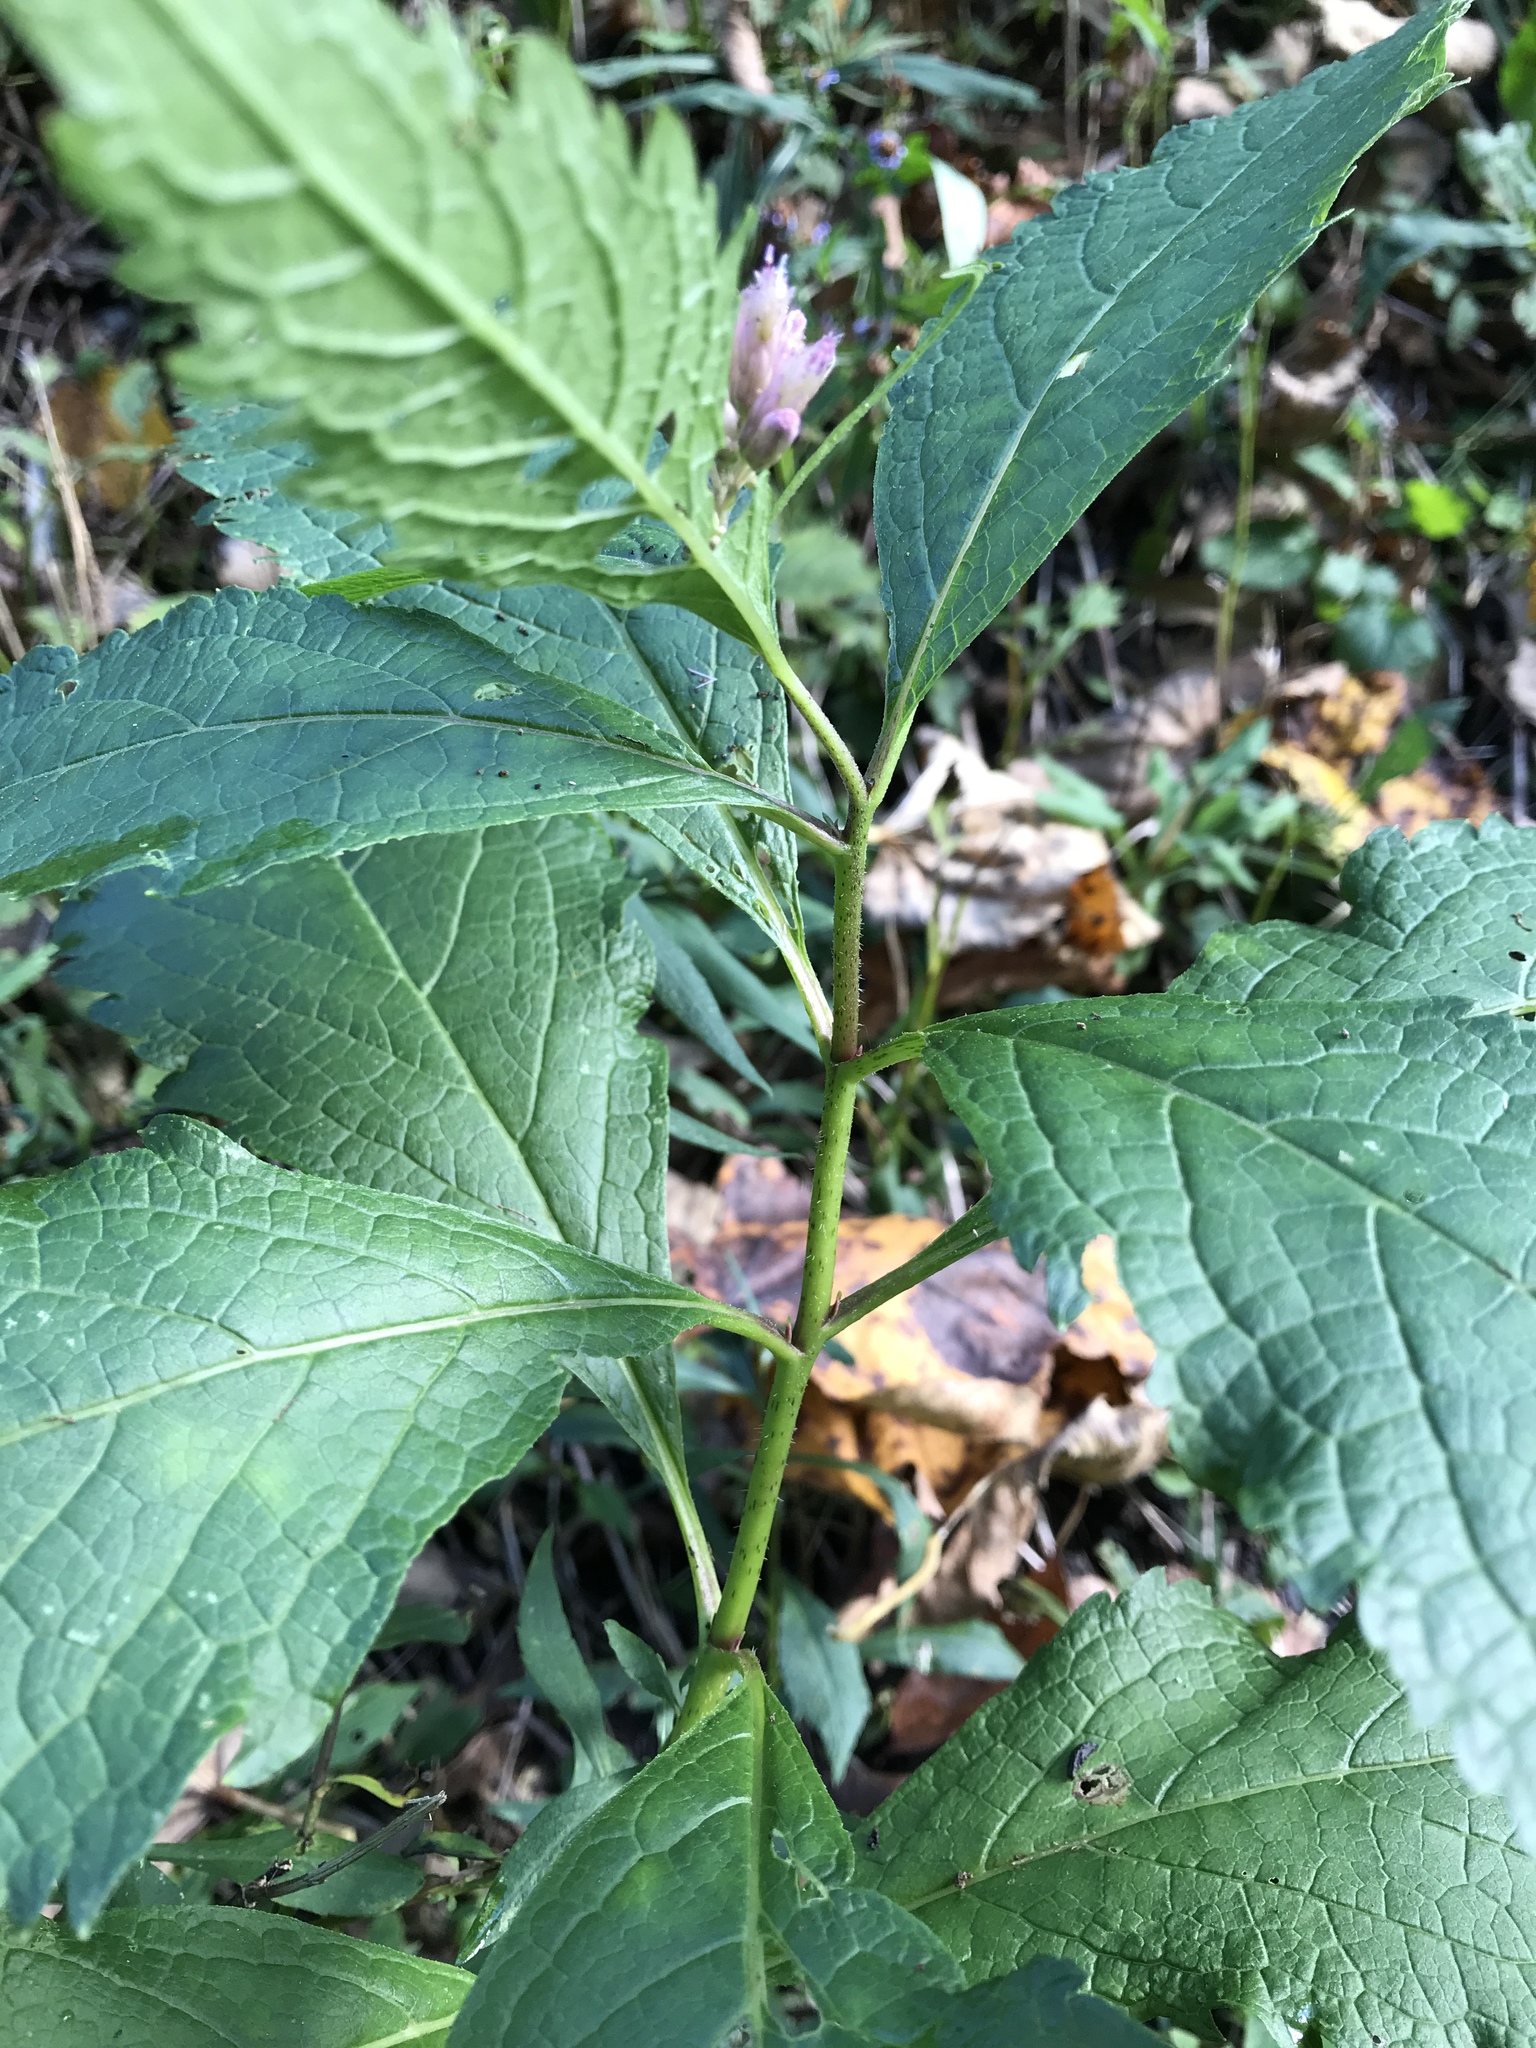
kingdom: Plantae
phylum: Tracheophyta
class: Magnoliopsida
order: Asterales
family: Asteraceae
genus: Eutrochium
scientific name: Eutrochium maculatum
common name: Spotted joe pye weed
